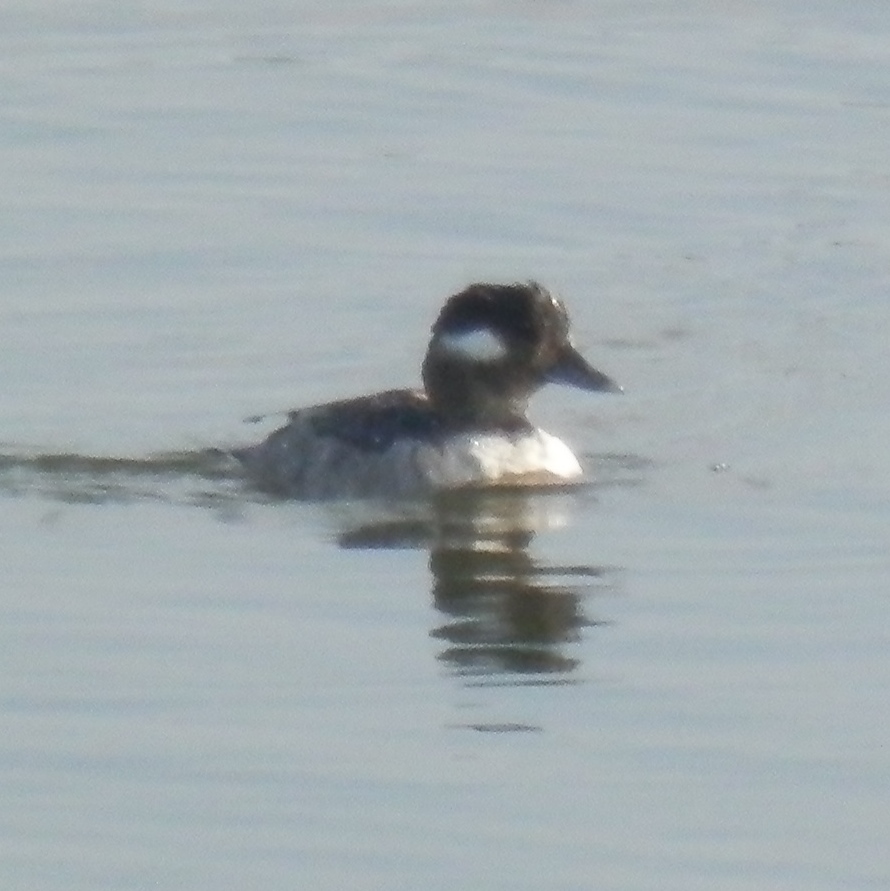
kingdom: Animalia
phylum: Chordata
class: Aves
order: Anseriformes
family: Anatidae
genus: Bucephala
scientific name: Bucephala albeola
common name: Bufflehead
